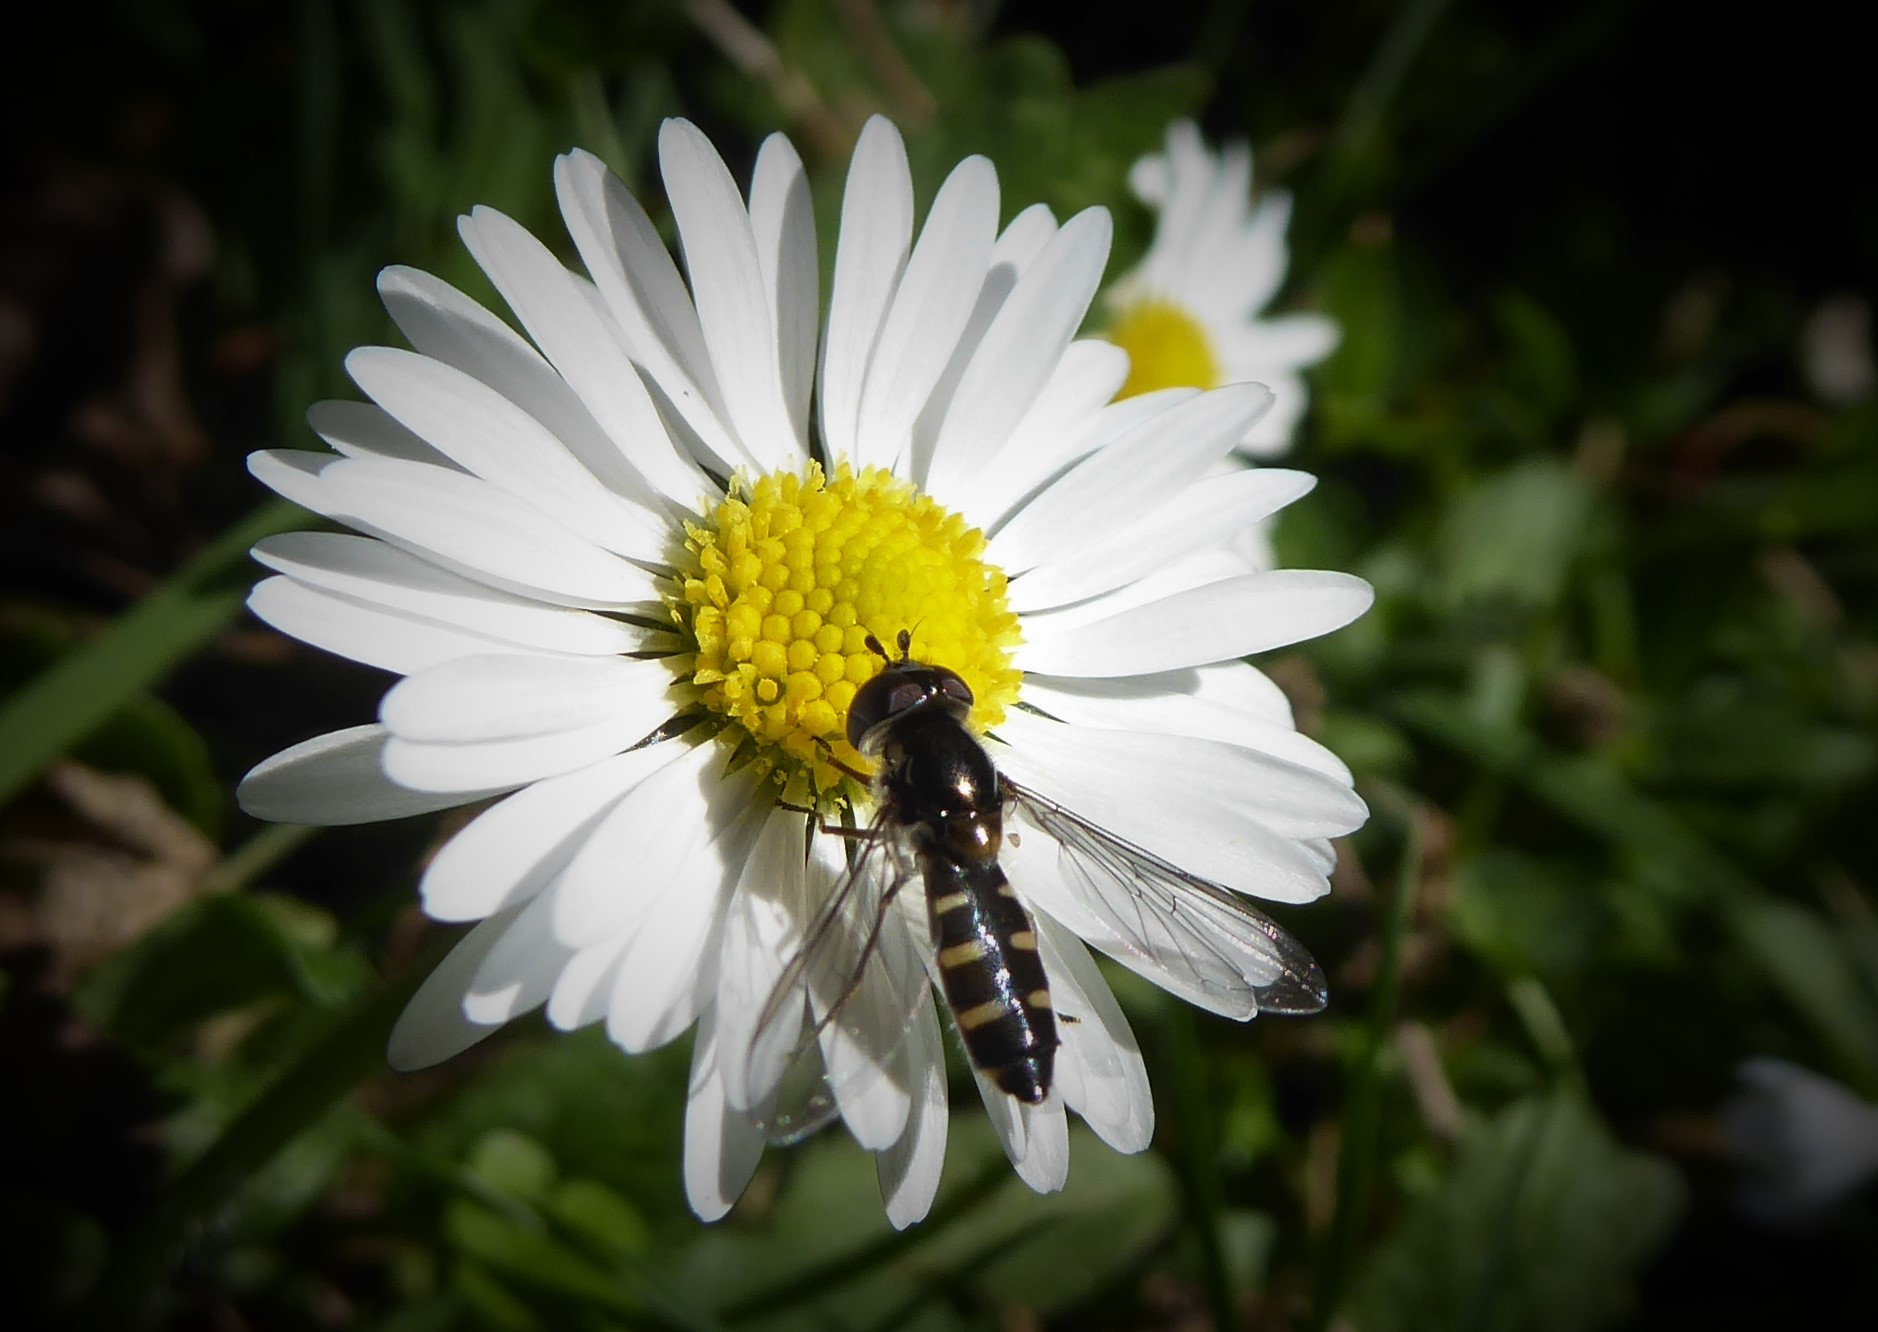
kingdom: Animalia
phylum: Arthropoda
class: Insecta
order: Diptera
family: Syrphidae
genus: Melangyna
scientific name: Melangyna novaezelandiae
